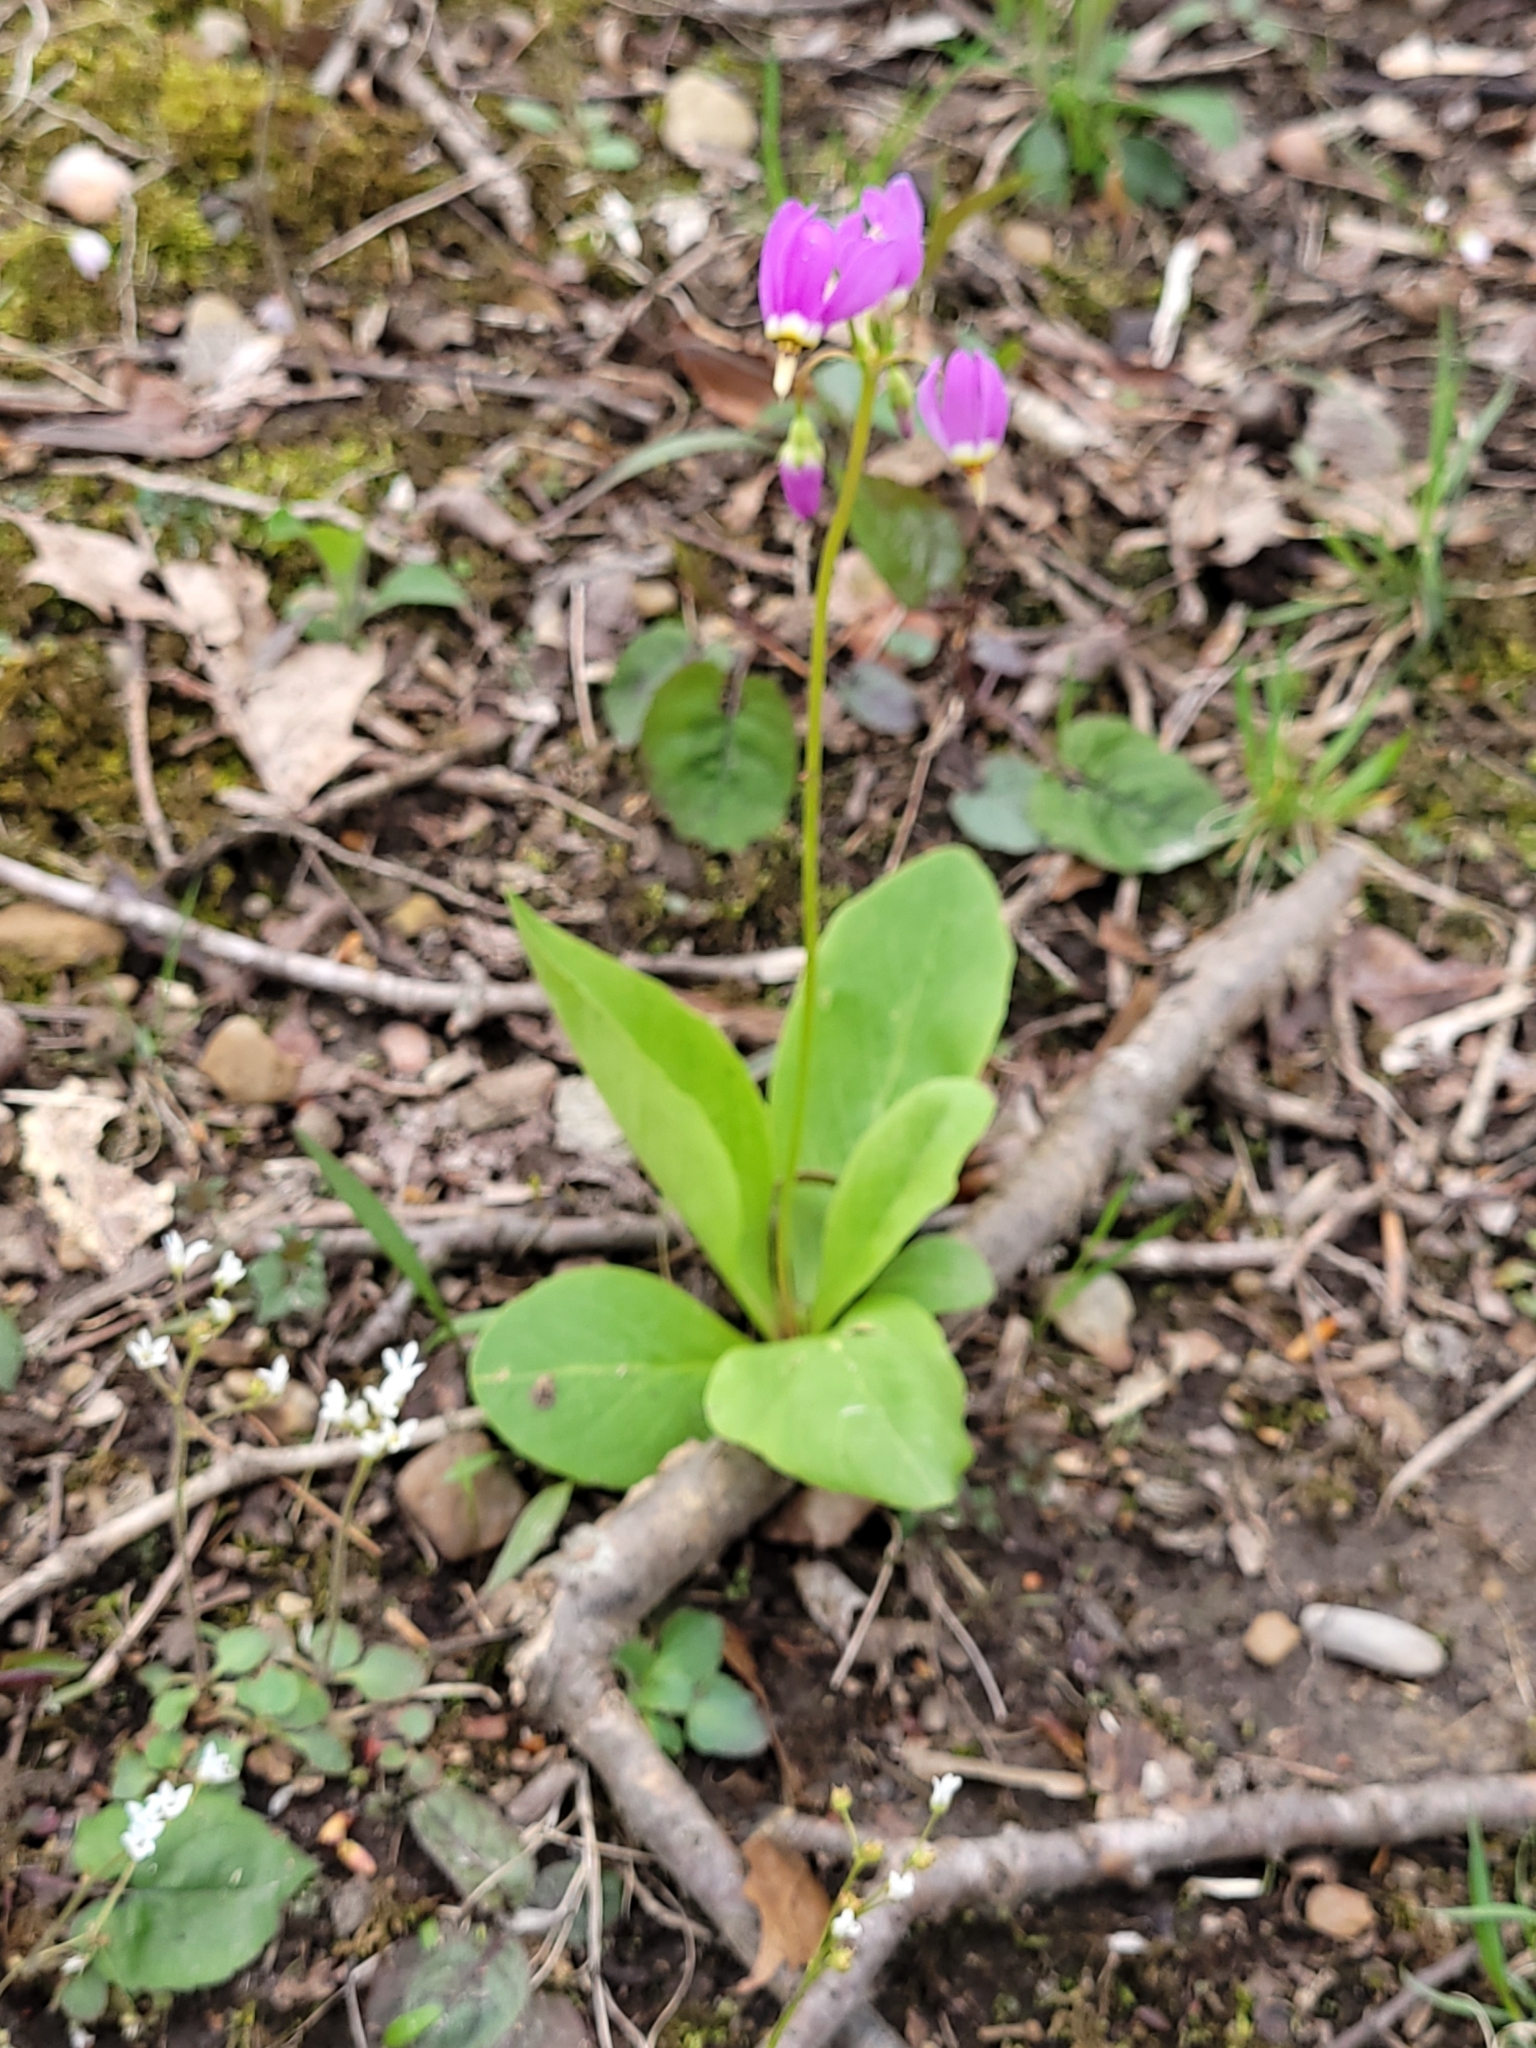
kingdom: Plantae
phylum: Tracheophyta
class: Magnoliopsida
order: Ericales
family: Primulaceae
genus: Dodecatheon
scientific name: Dodecatheon amethystinum
